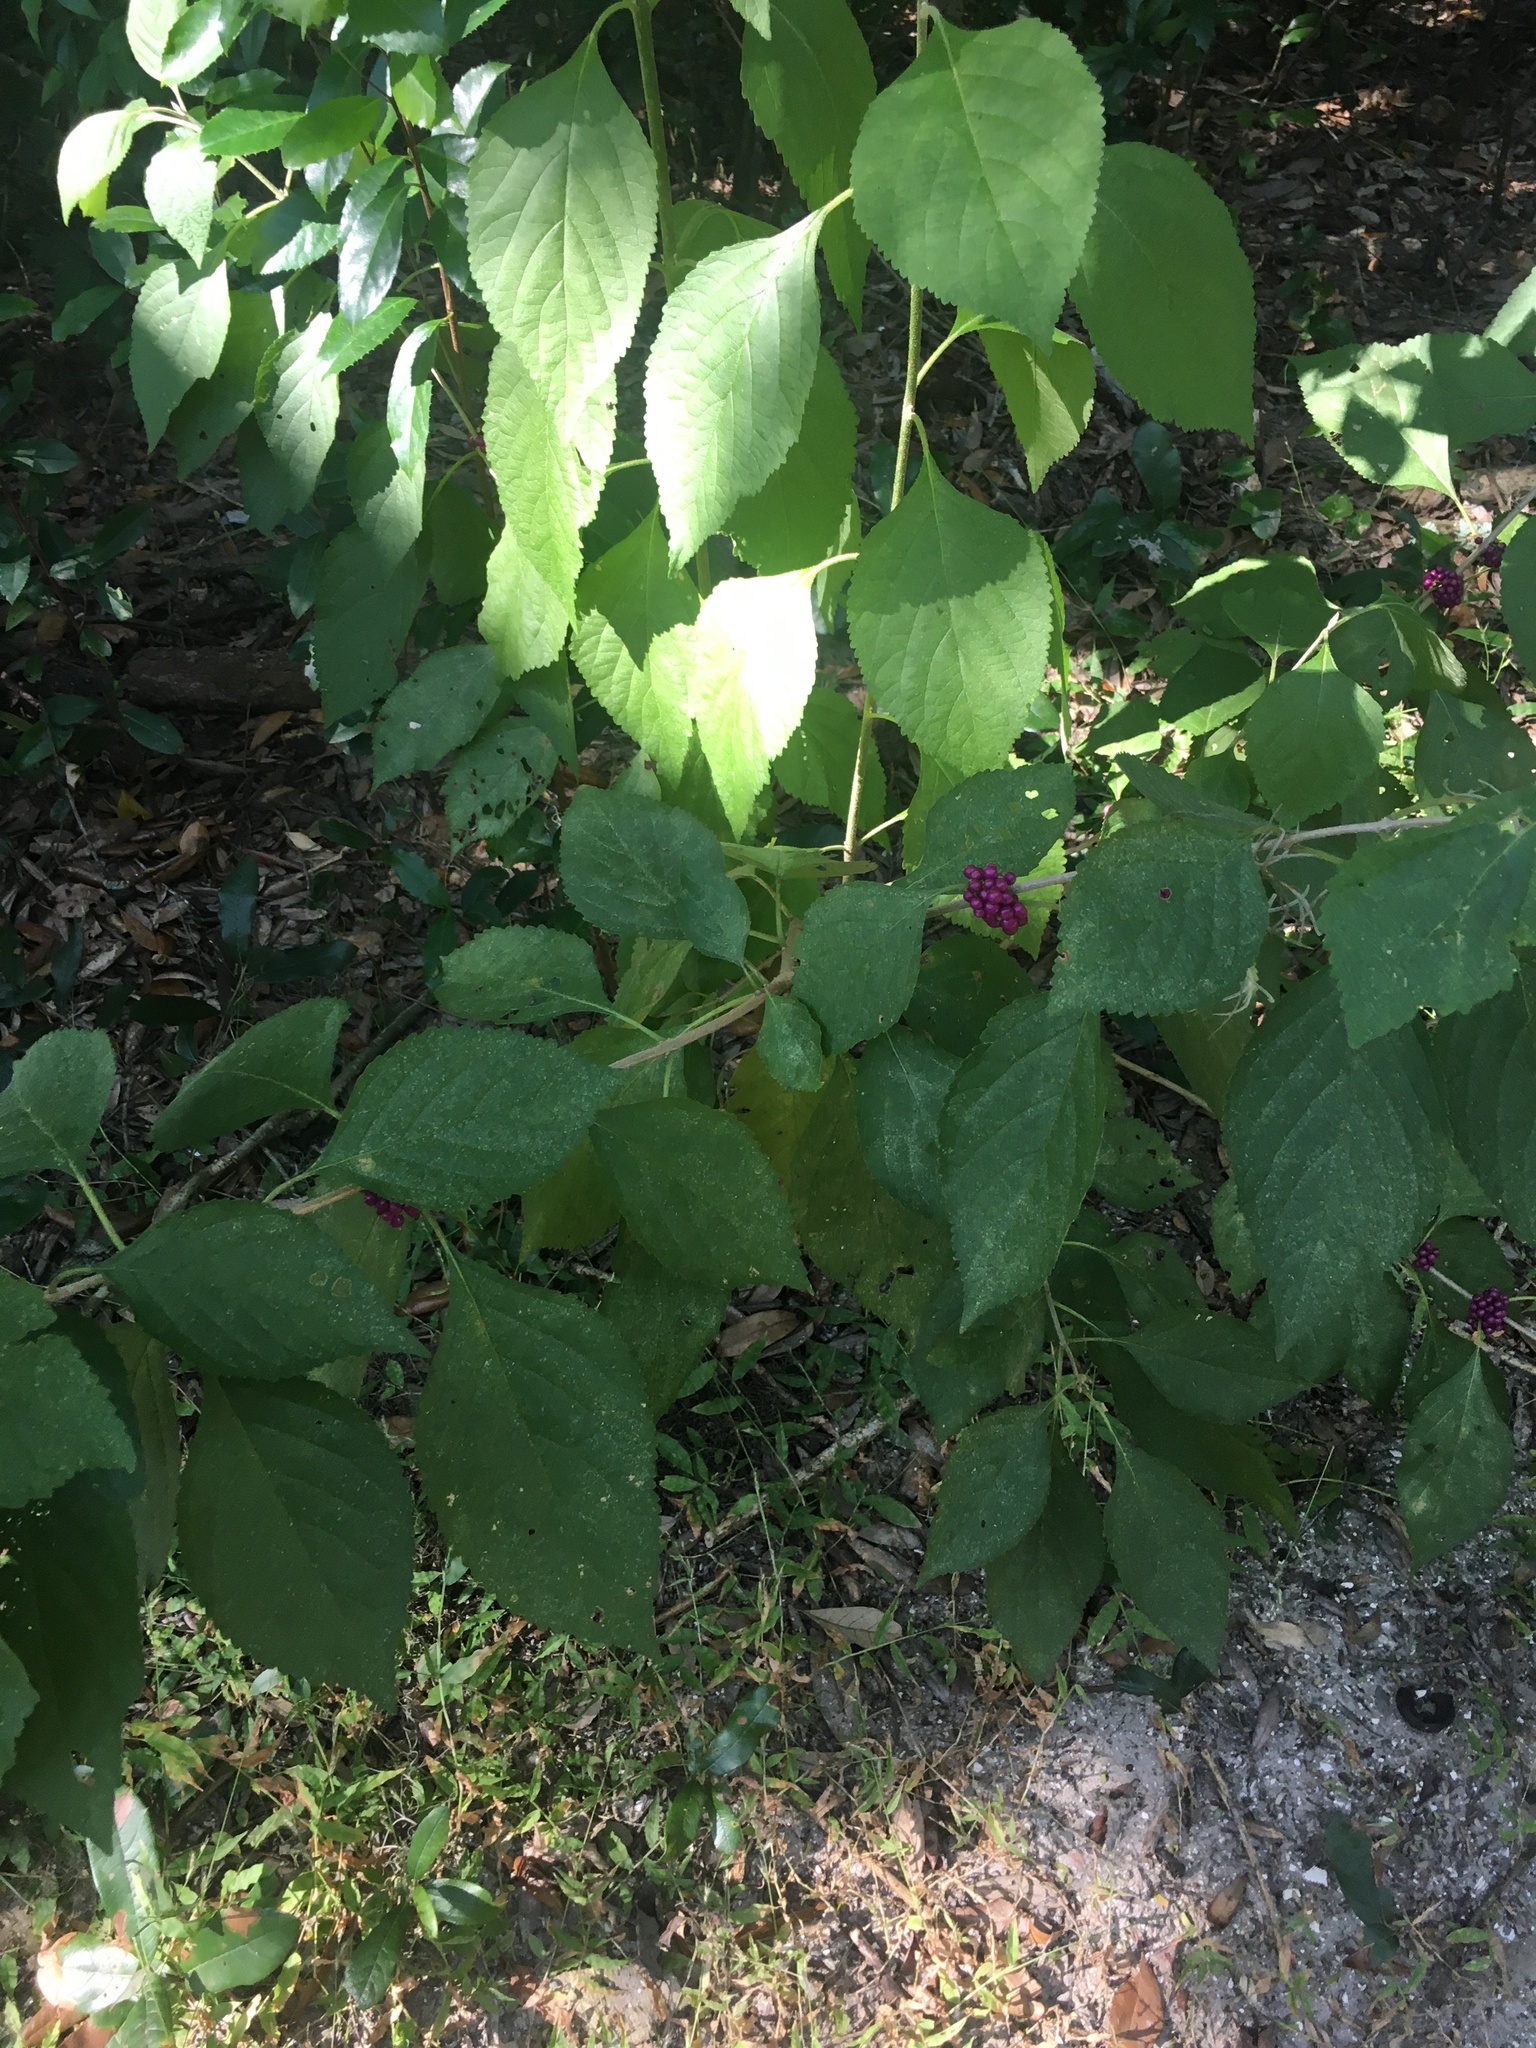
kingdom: Plantae
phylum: Tracheophyta
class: Magnoliopsida
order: Lamiales
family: Lamiaceae
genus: Callicarpa
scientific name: Callicarpa americana
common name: American beautyberry
